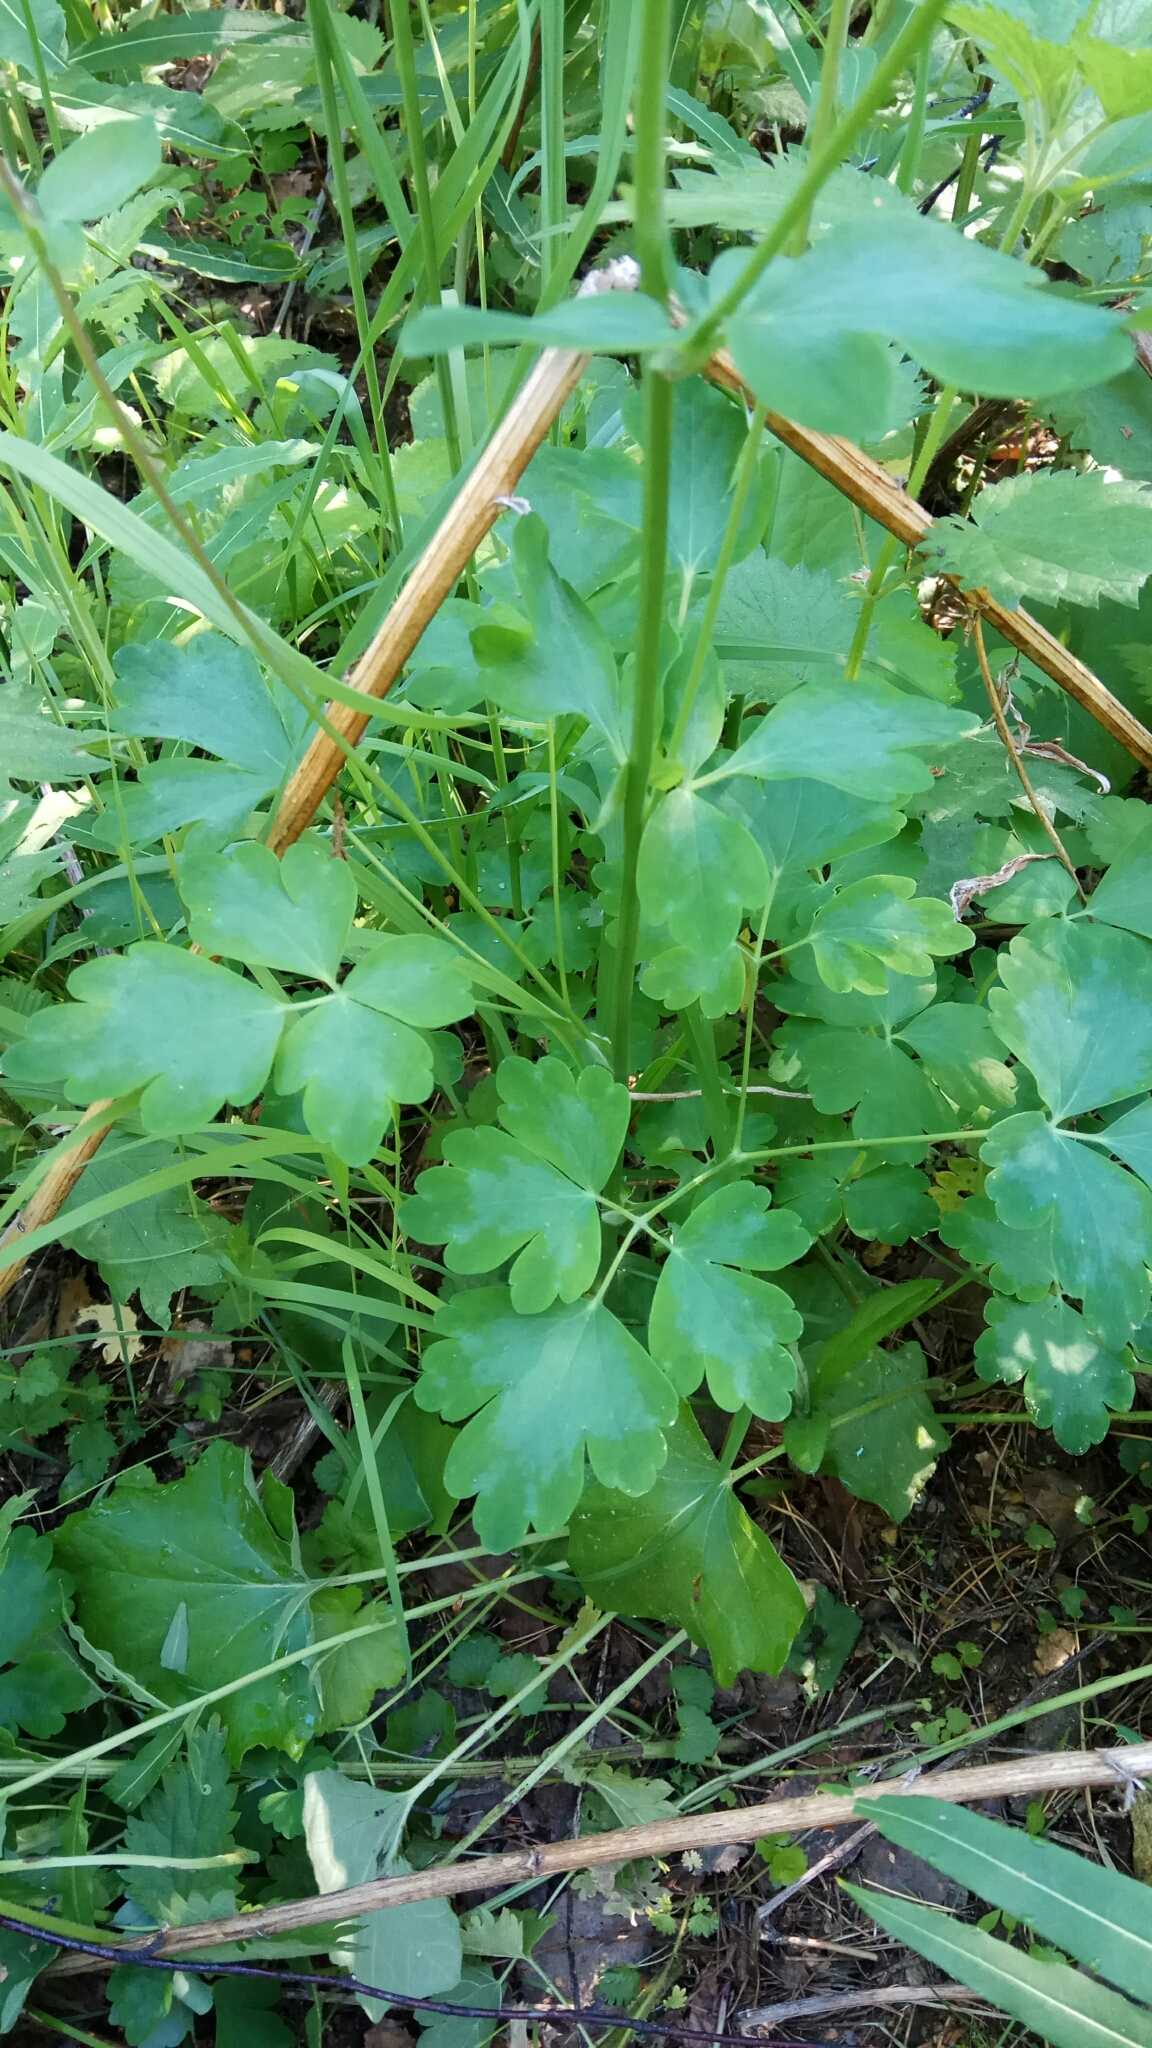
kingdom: Plantae
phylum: Tracheophyta
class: Magnoliopsida
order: Ranunculales
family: Ranunculaceae
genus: Aquilegia
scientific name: Aquilegia vulgaris
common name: Columbine
